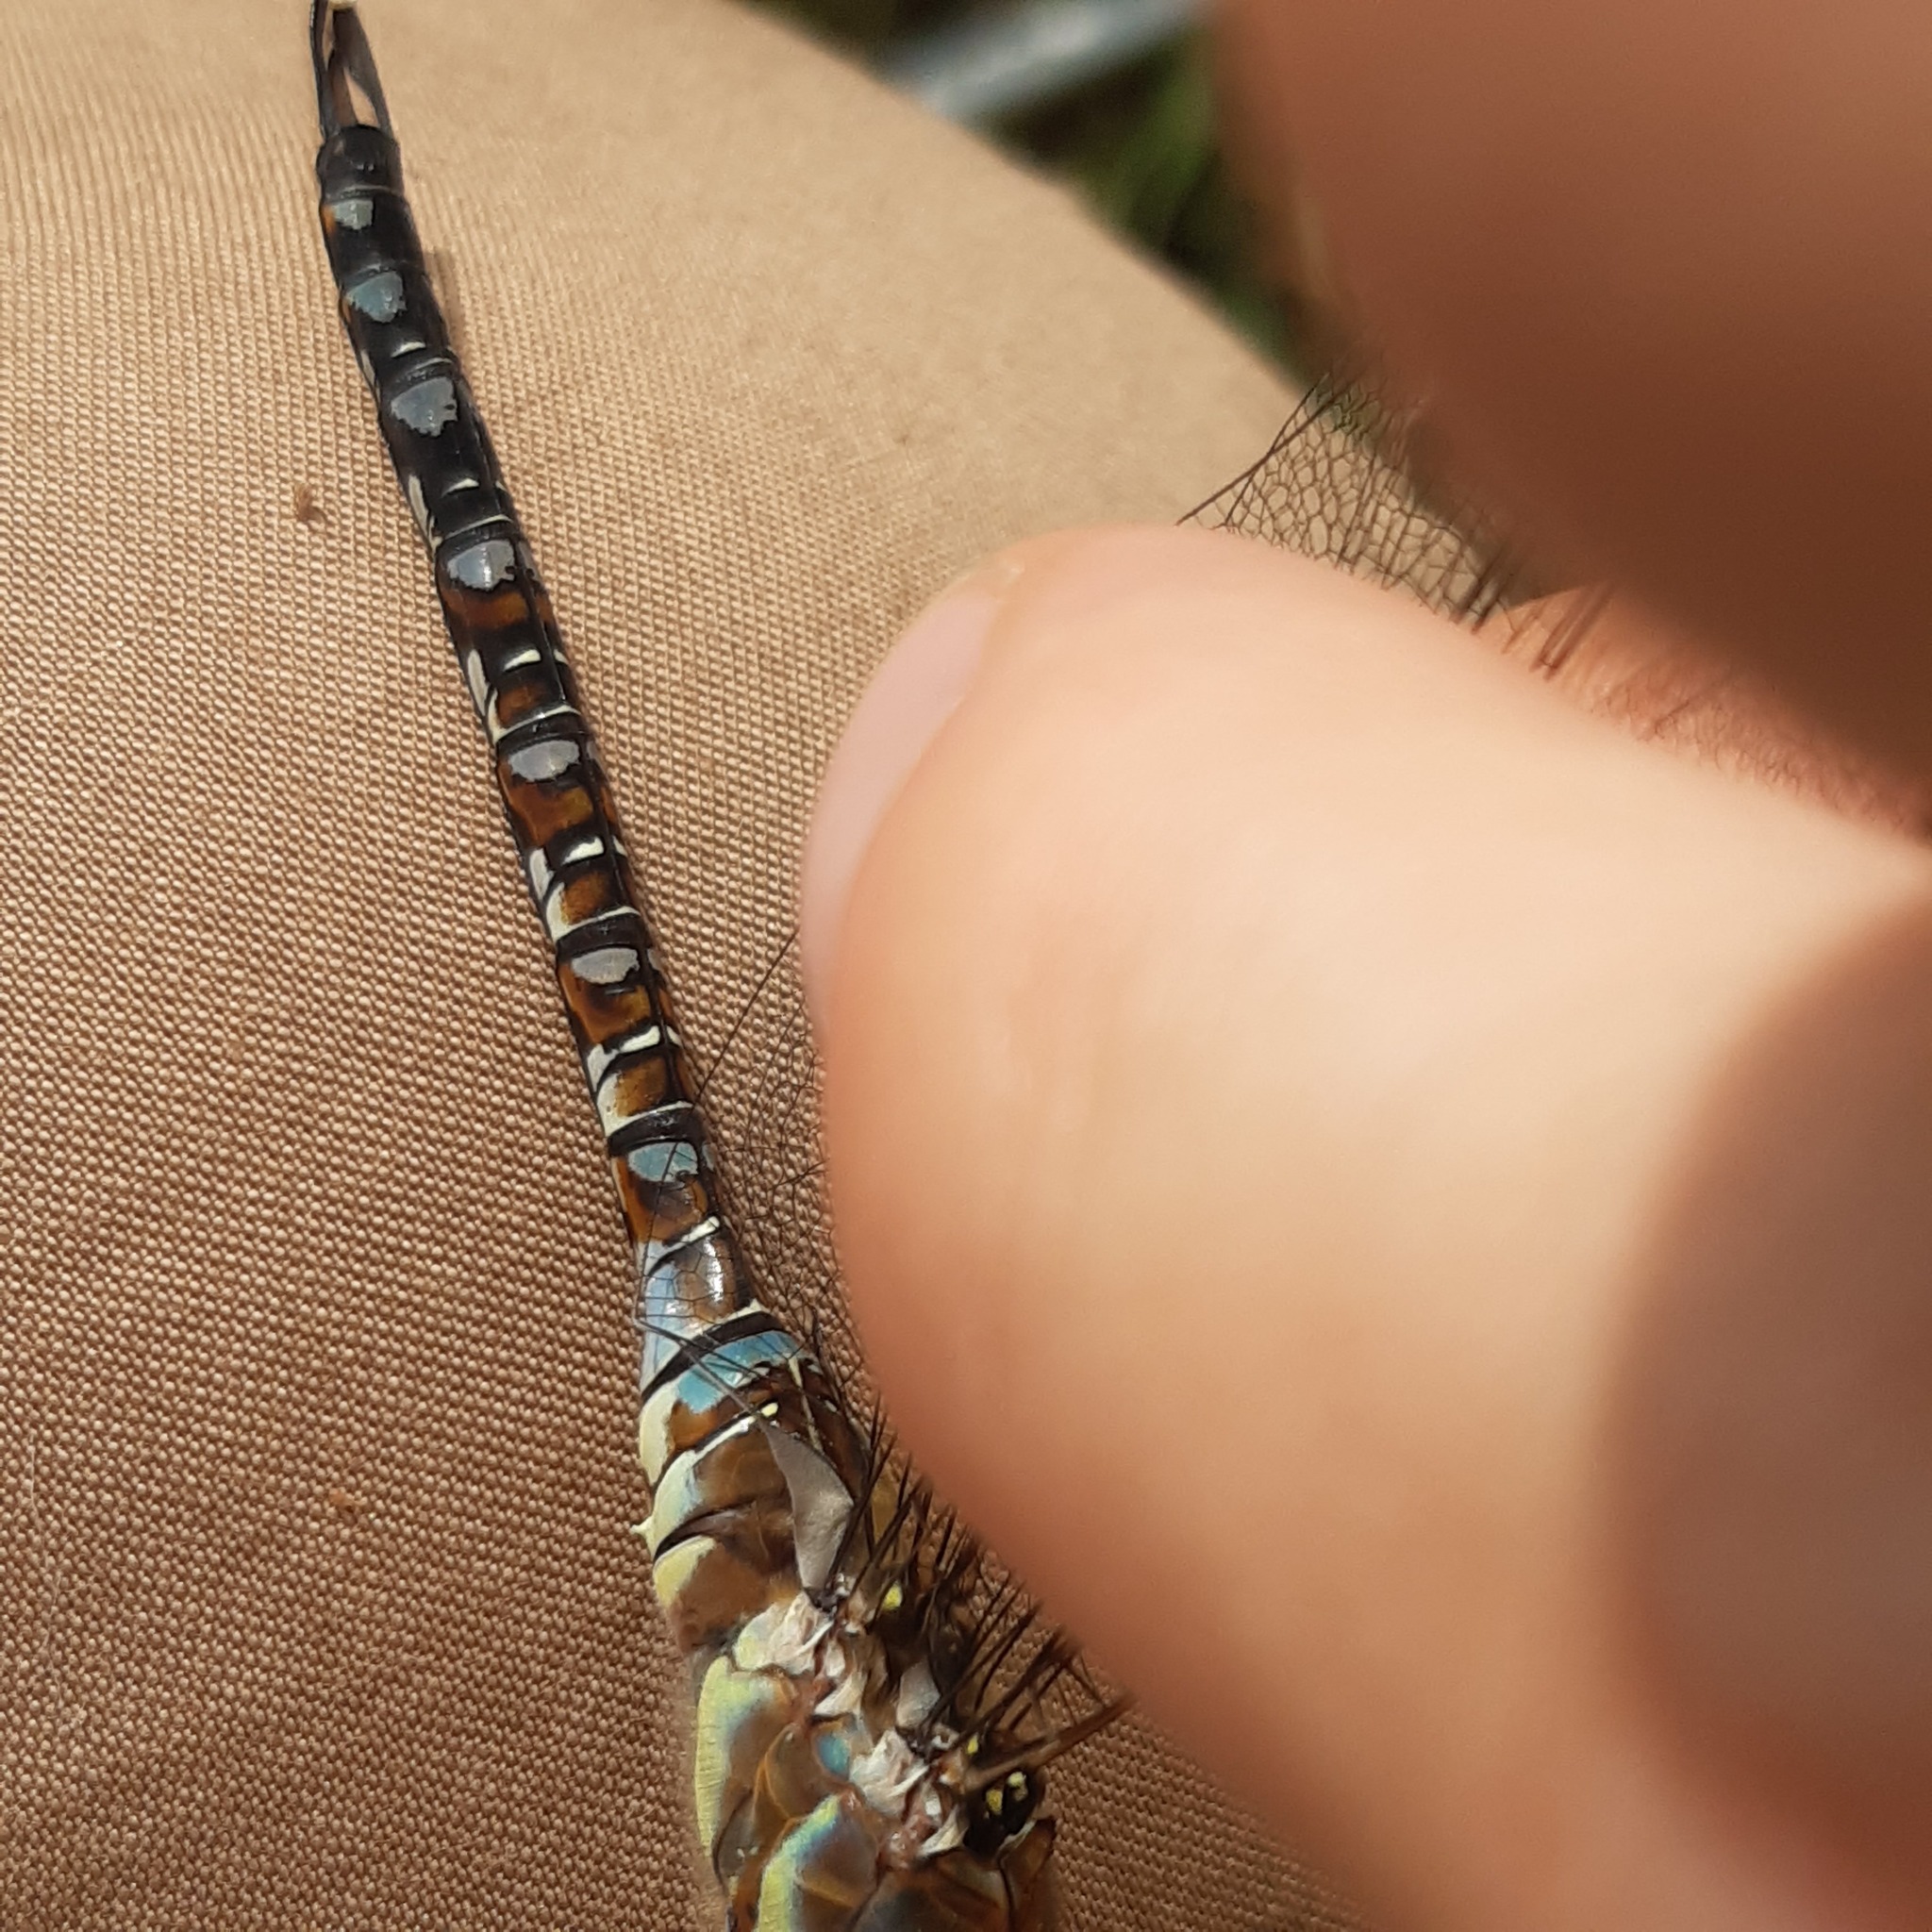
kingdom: Animalia
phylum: Arthropoda
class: Insecta
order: Odonata
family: Aeshnidae
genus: Aeshna
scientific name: Aeshna mixta
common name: Migrant hawker
